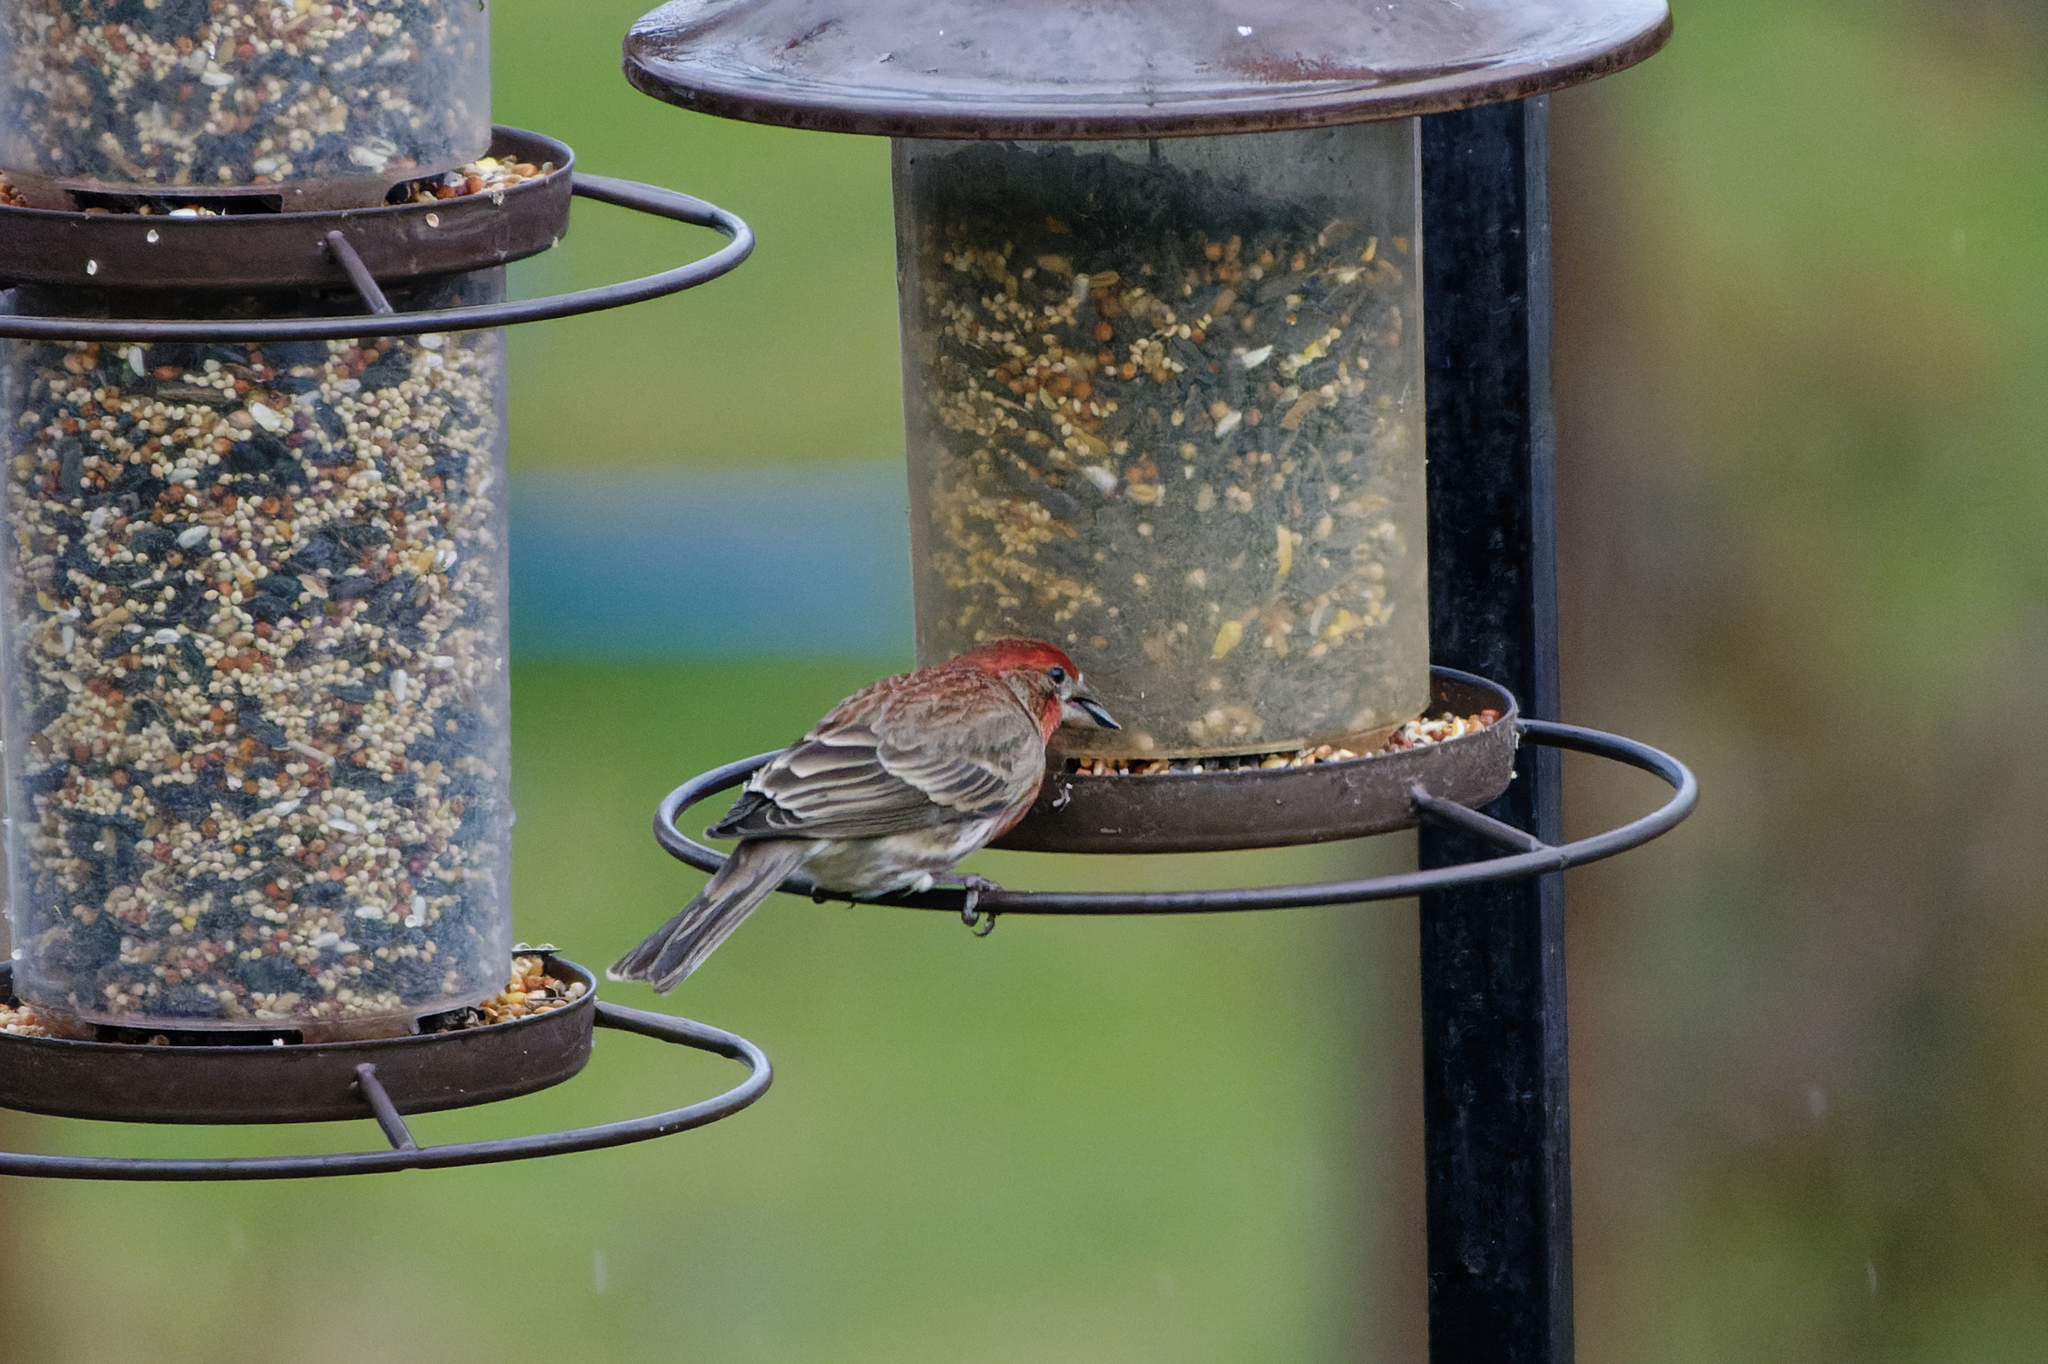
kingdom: Animalia
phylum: Chordata
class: Aves
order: Passeriformes
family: Fringillidae
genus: Haemorhous
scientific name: Haemorhous mexicanus
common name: House finch
